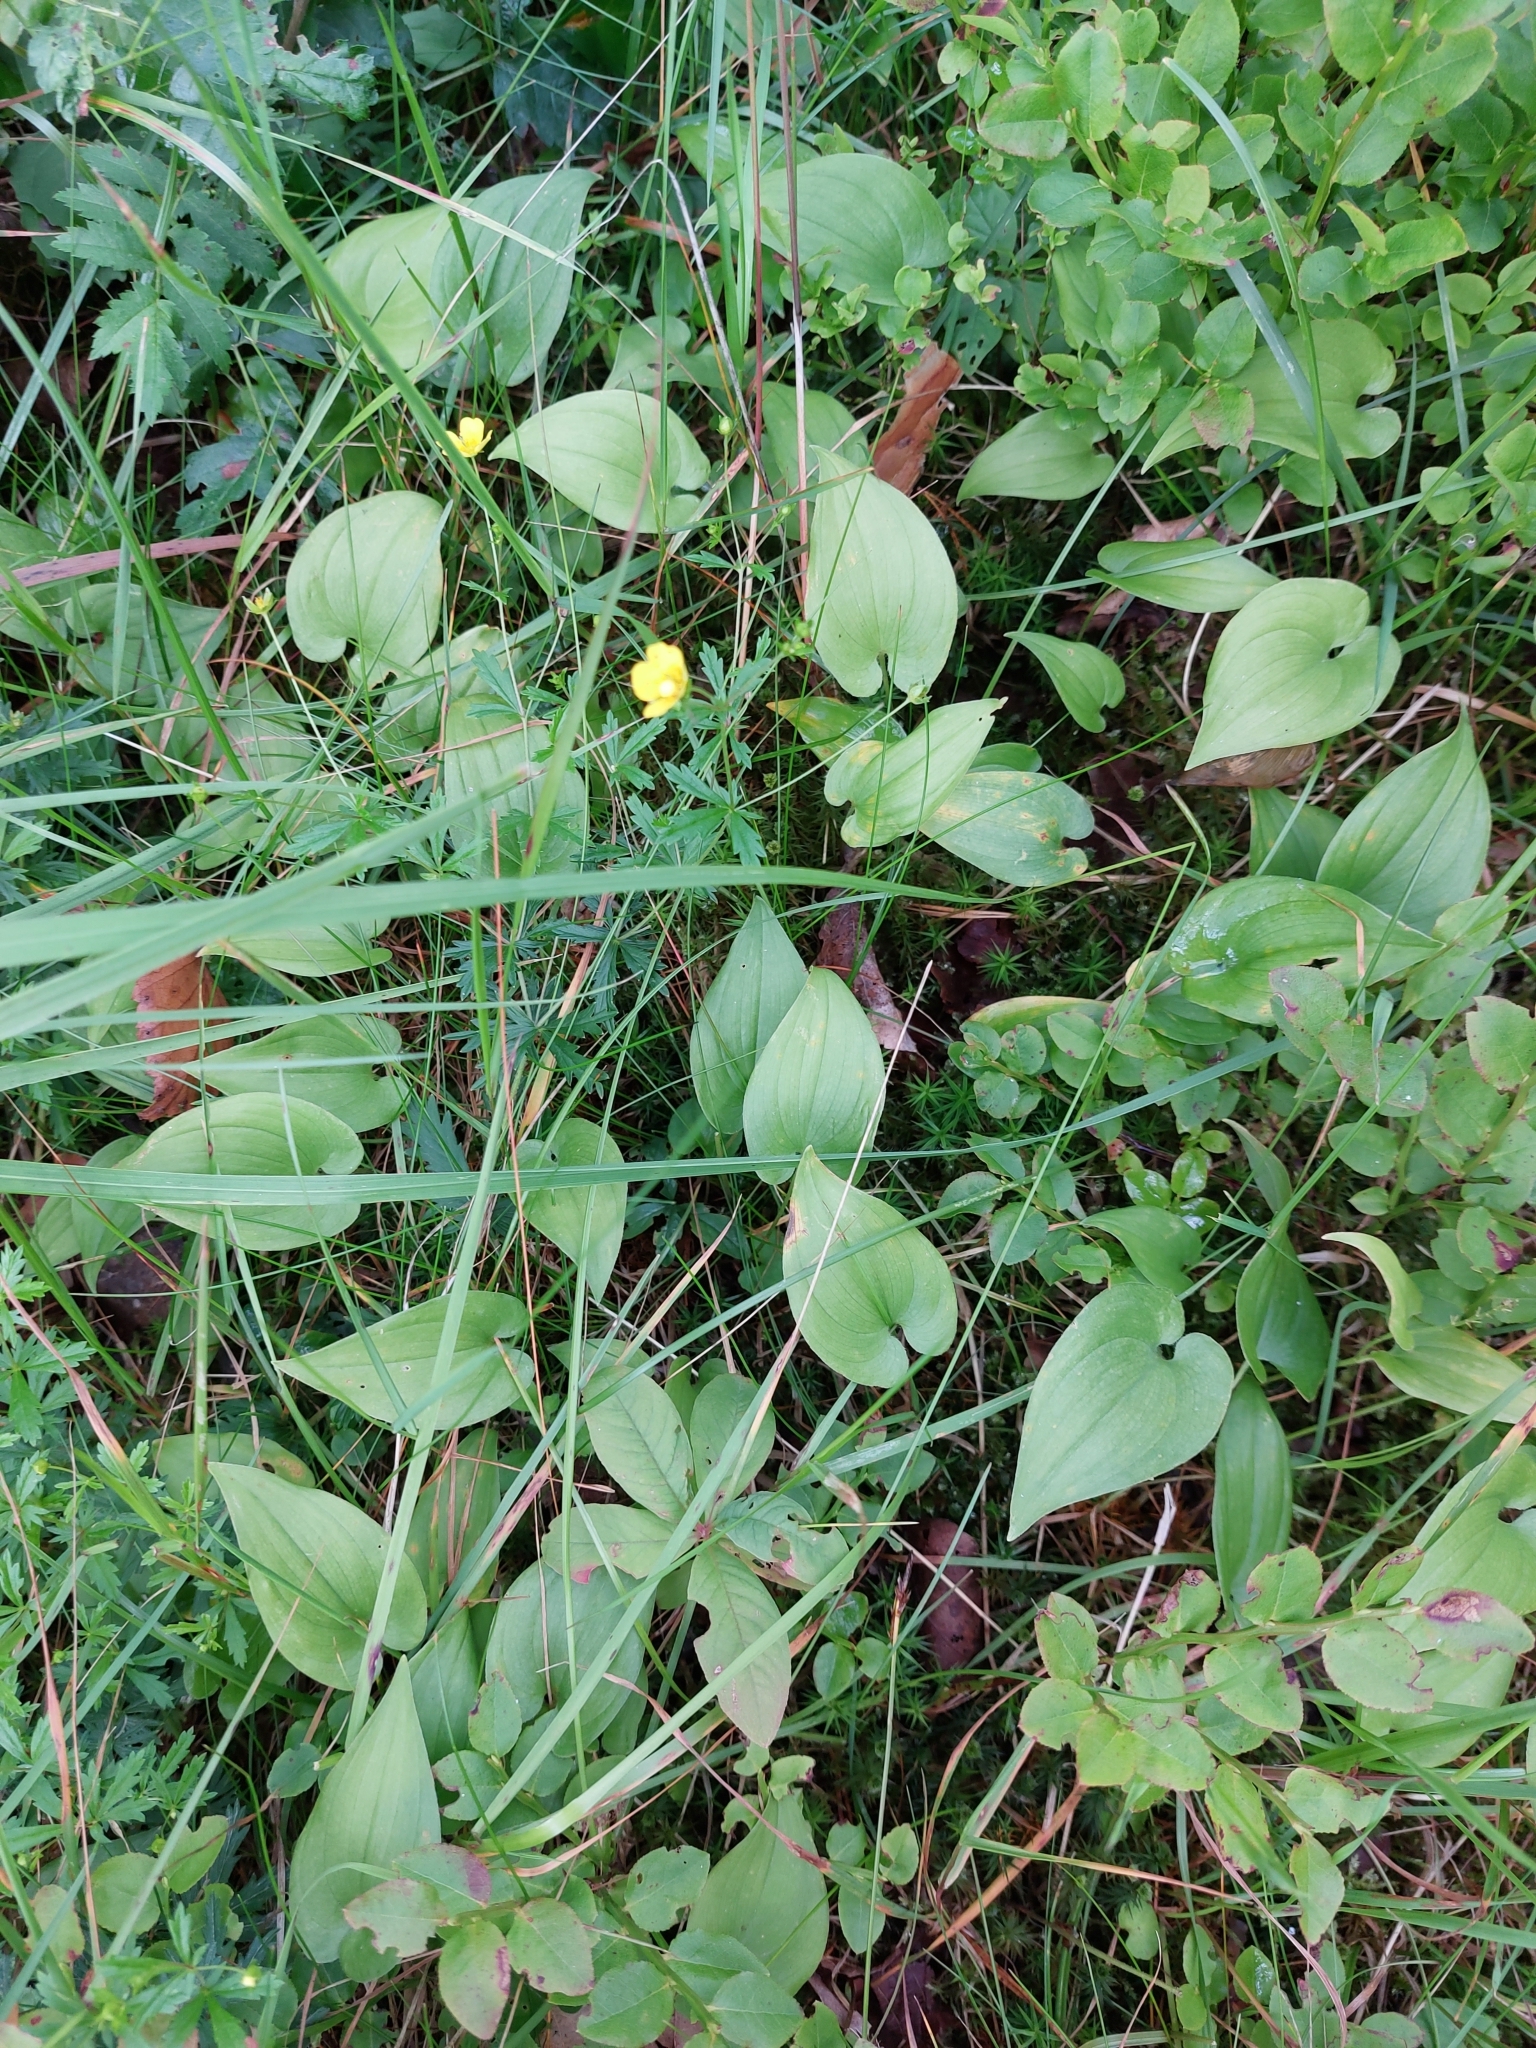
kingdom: Plantae
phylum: Tracheophyta
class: Liliopsida
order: Asparagales
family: Asparagaceae
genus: Maianthemum
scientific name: Maianthemum bifolium
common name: May lily
